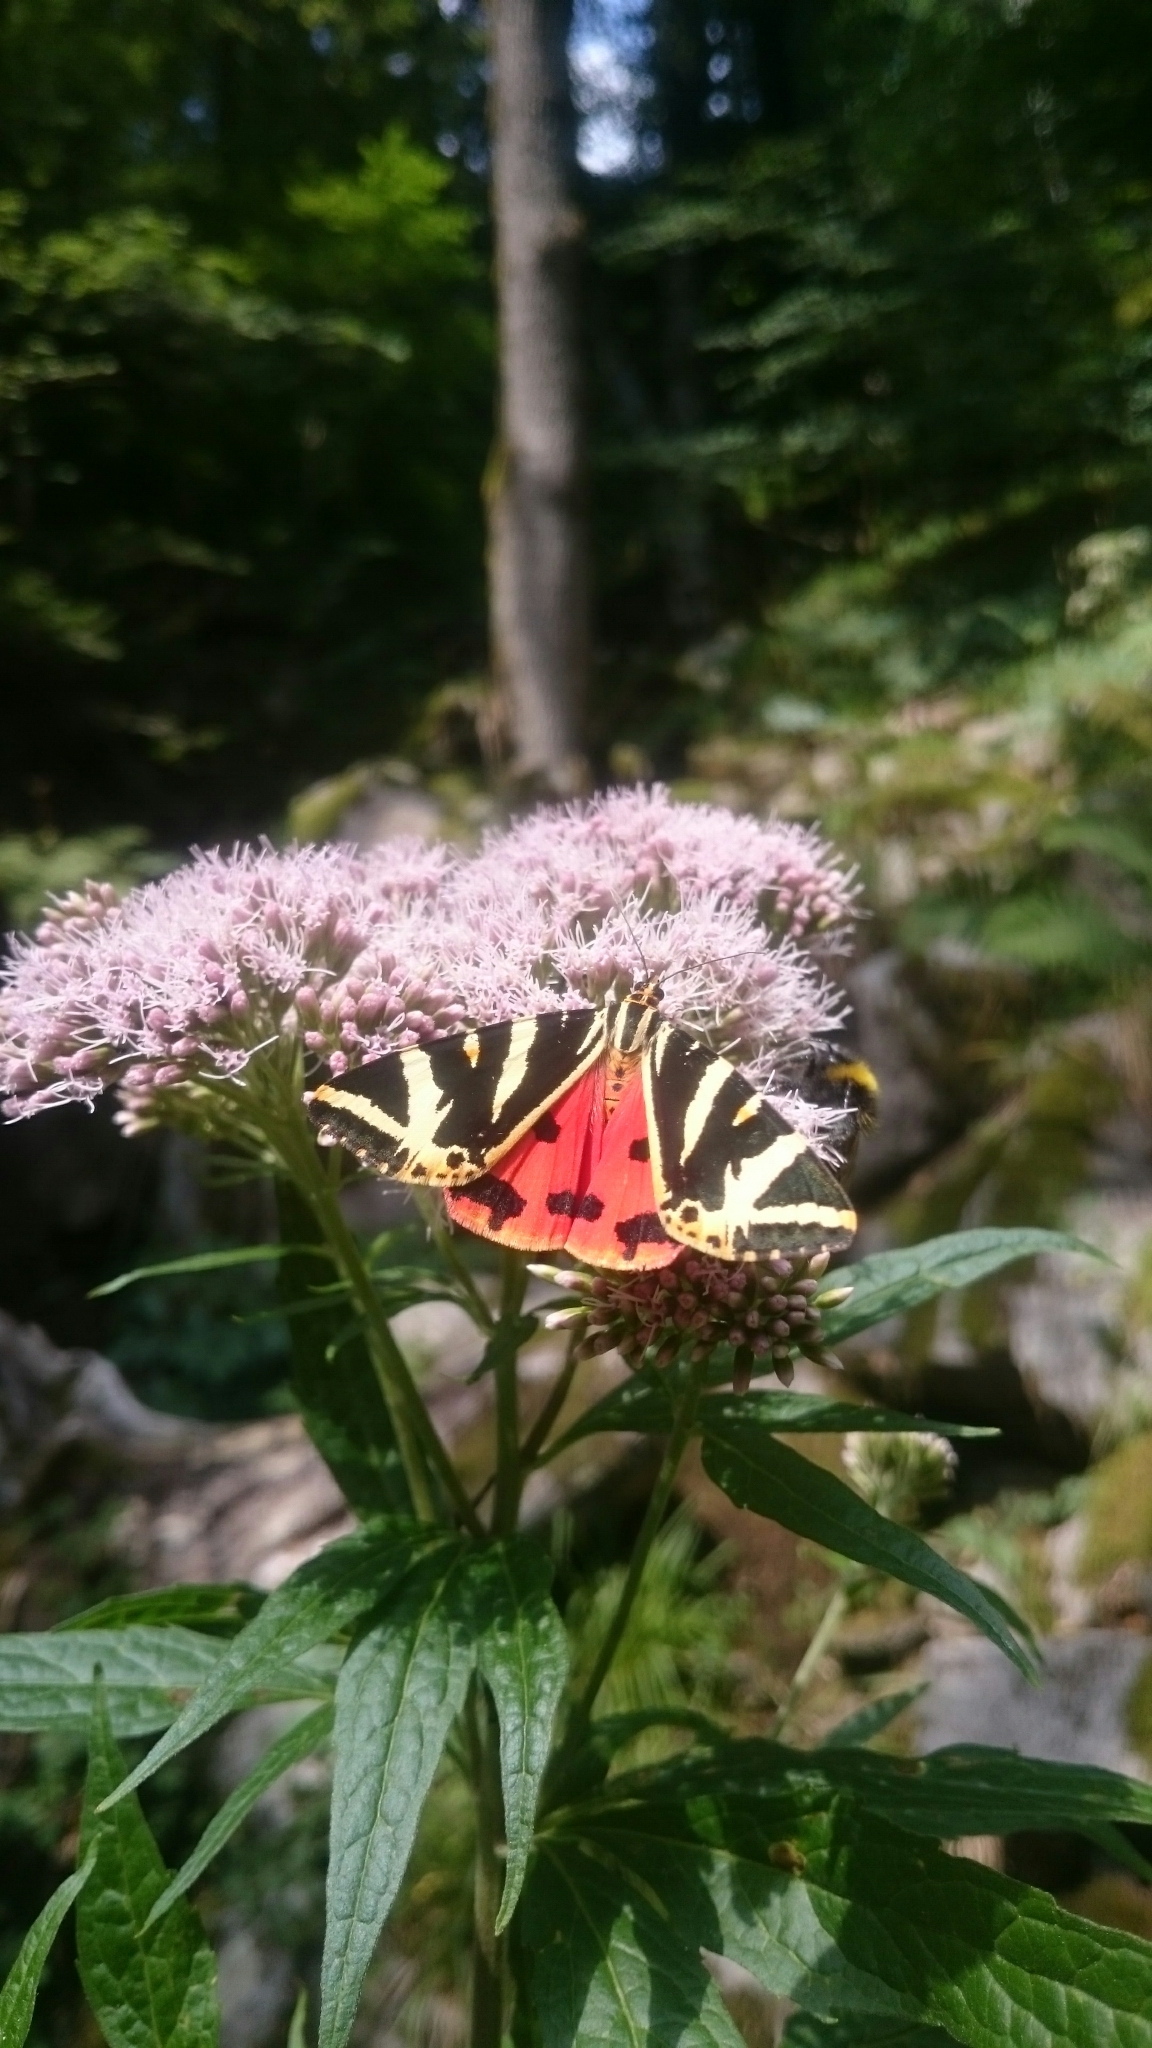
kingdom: Animalia
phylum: Arthropoda
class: Insecta
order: Lepidoptera
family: Erebidae
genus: Euplagia
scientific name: Euplagia quadripunctaria
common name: Jersey tiger
